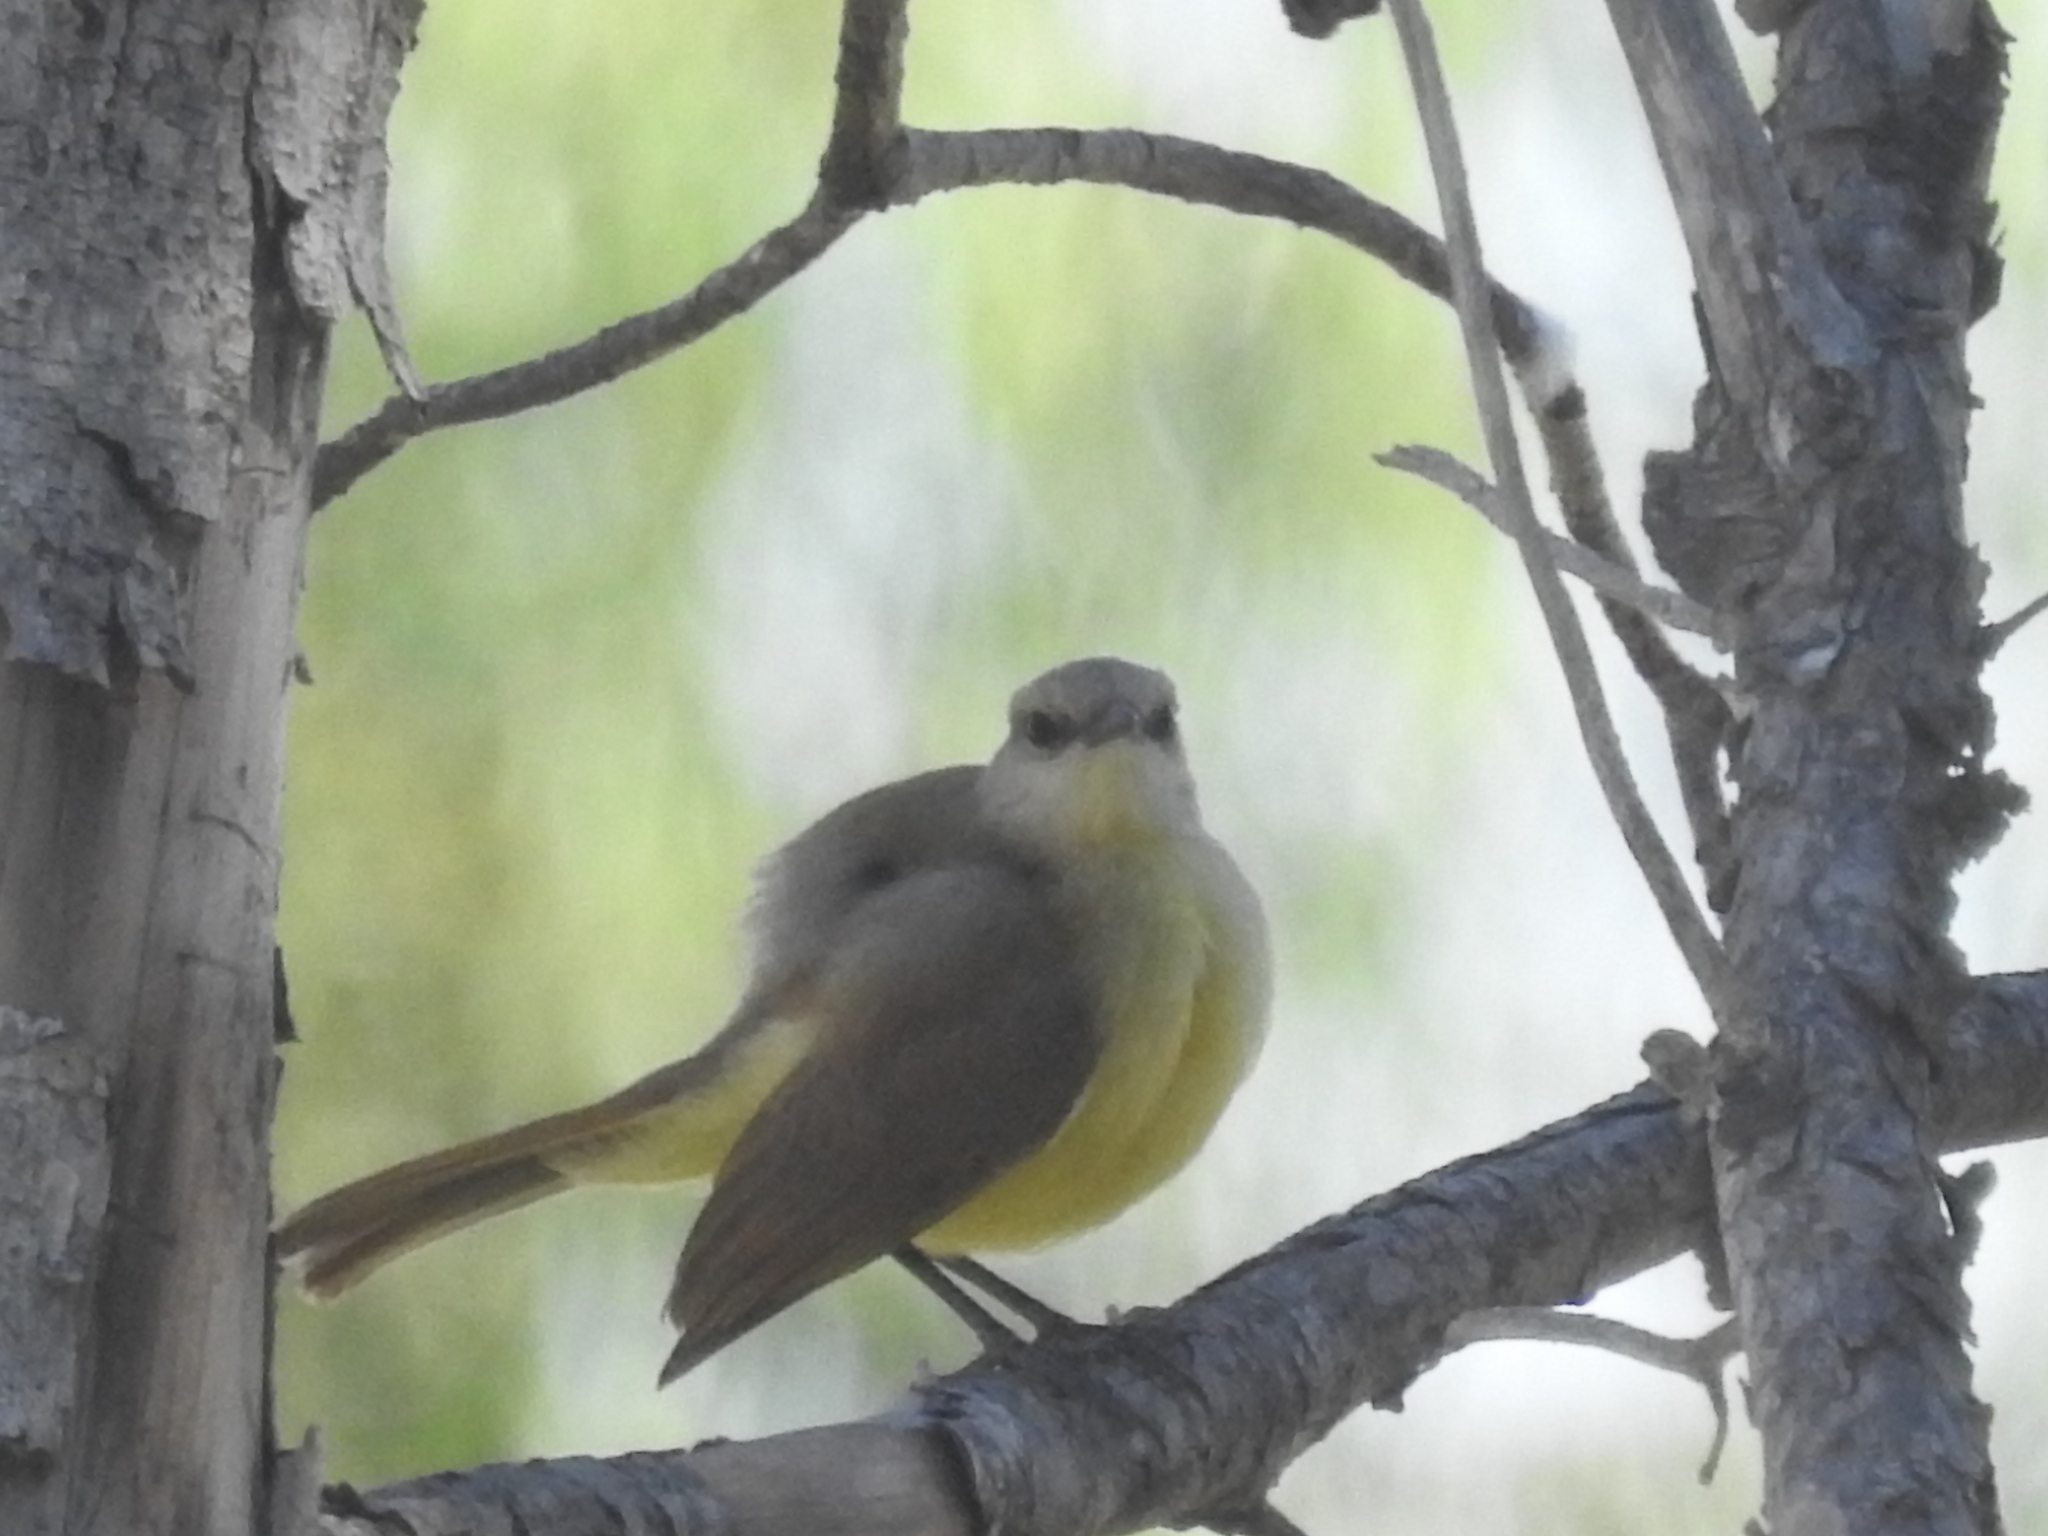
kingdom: Animalia
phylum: Chordata
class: Aves
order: Passeriformes
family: Tyrannidae
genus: Machetornis
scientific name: Machetornis rixosa
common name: Cattle tyrant
